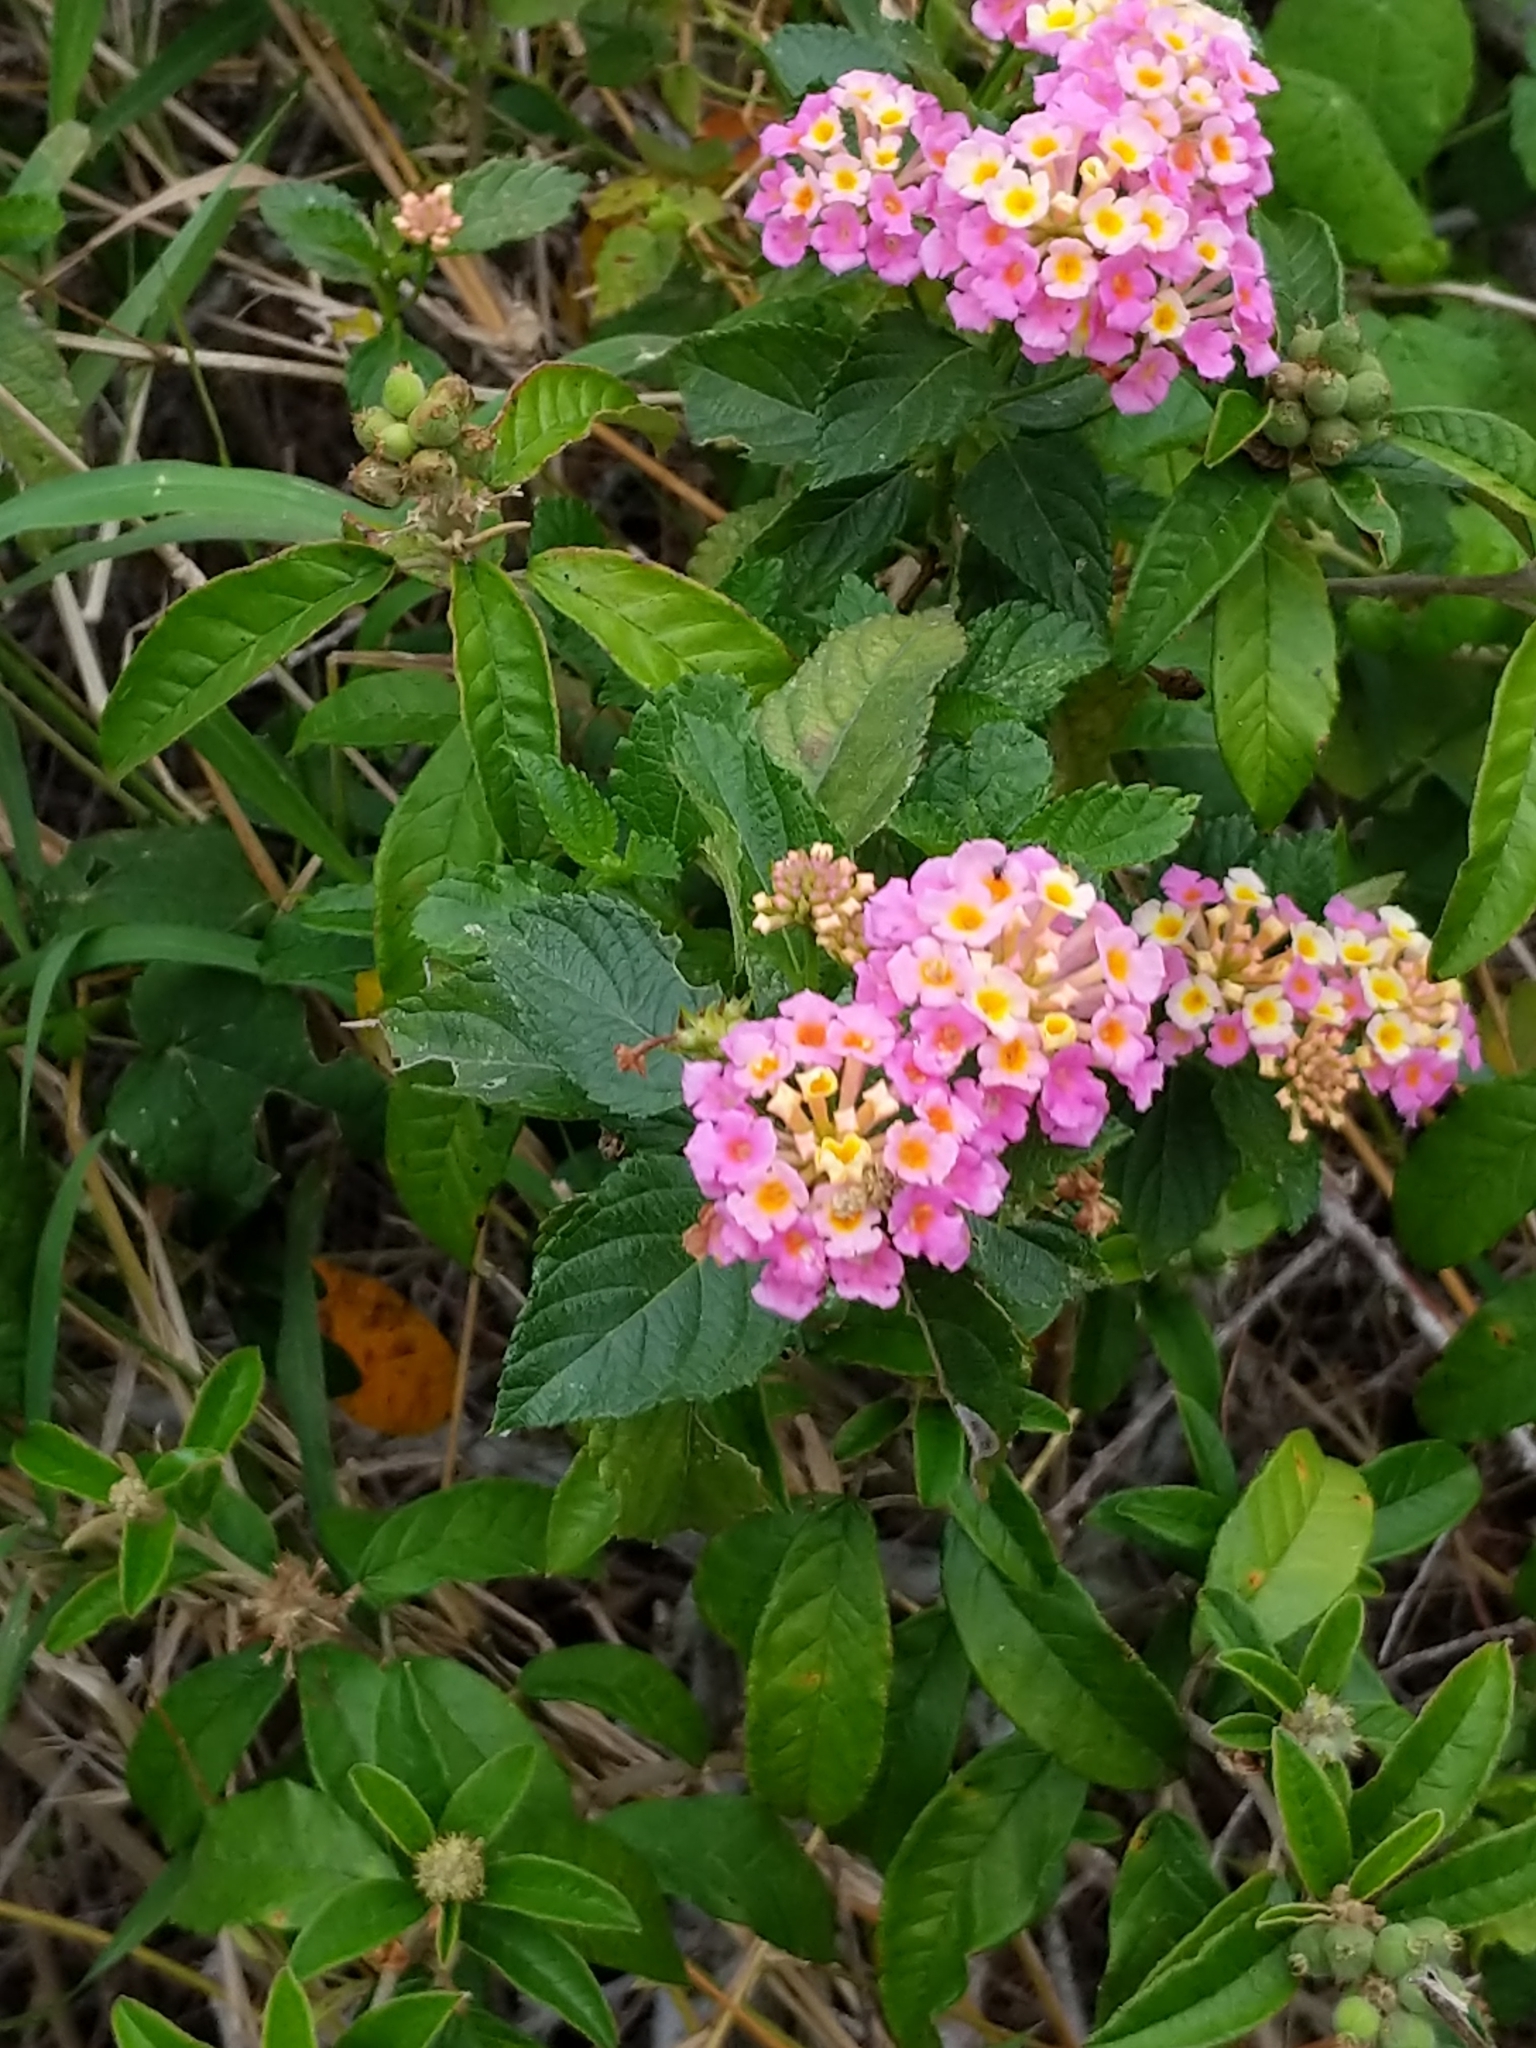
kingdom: Plantae
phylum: Tracheophyta
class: Magnoliopsida
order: Lamiales
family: Verbenaceae
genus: Lantana
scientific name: Lantana strigocamara
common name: Lantana
